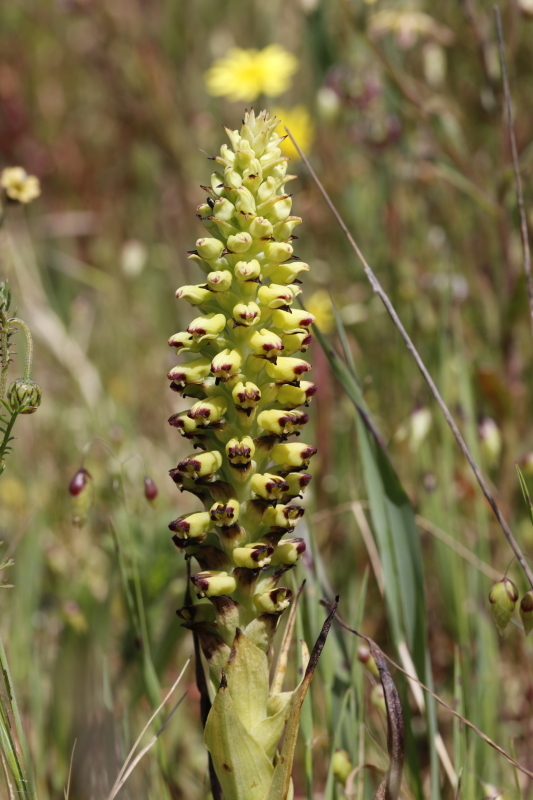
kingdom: Plantae
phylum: Tracheophyta
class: Liliopsida
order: Asparagales
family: Orchidaceae
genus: Corycium
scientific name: Corycium orobanchoides
